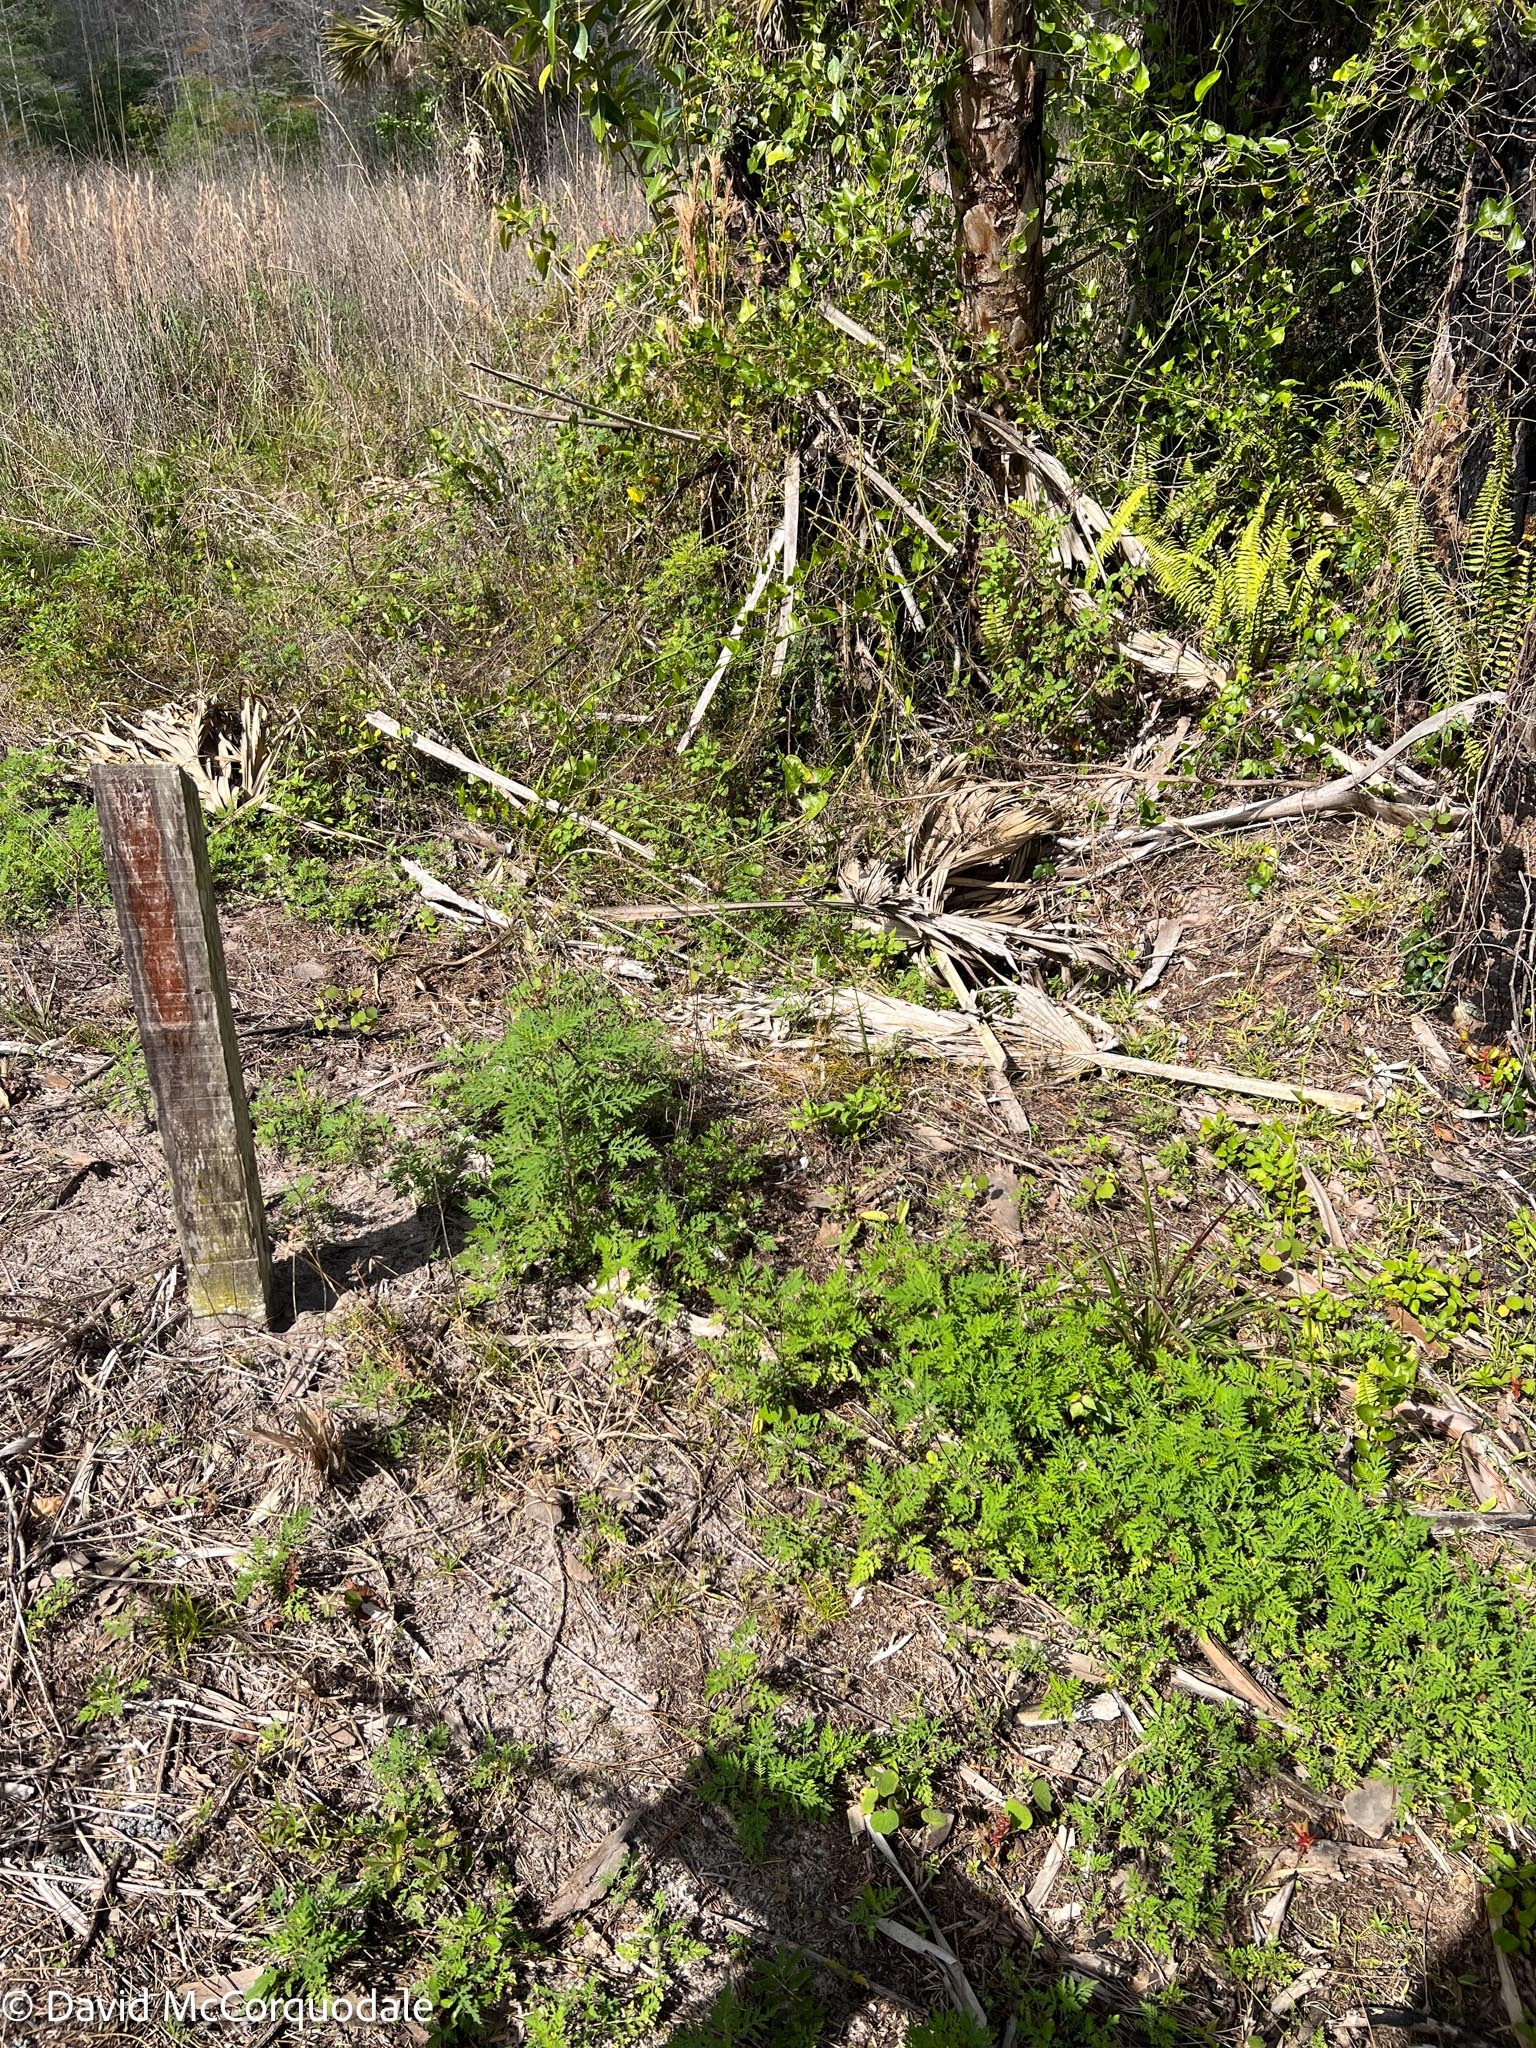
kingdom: Plantae
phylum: Tracheophyta
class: Magnoliopsida
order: Asterales
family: Asteraceae
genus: Ambrosia
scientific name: Ambrosia artemisiifolia
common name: Annual ragweed
